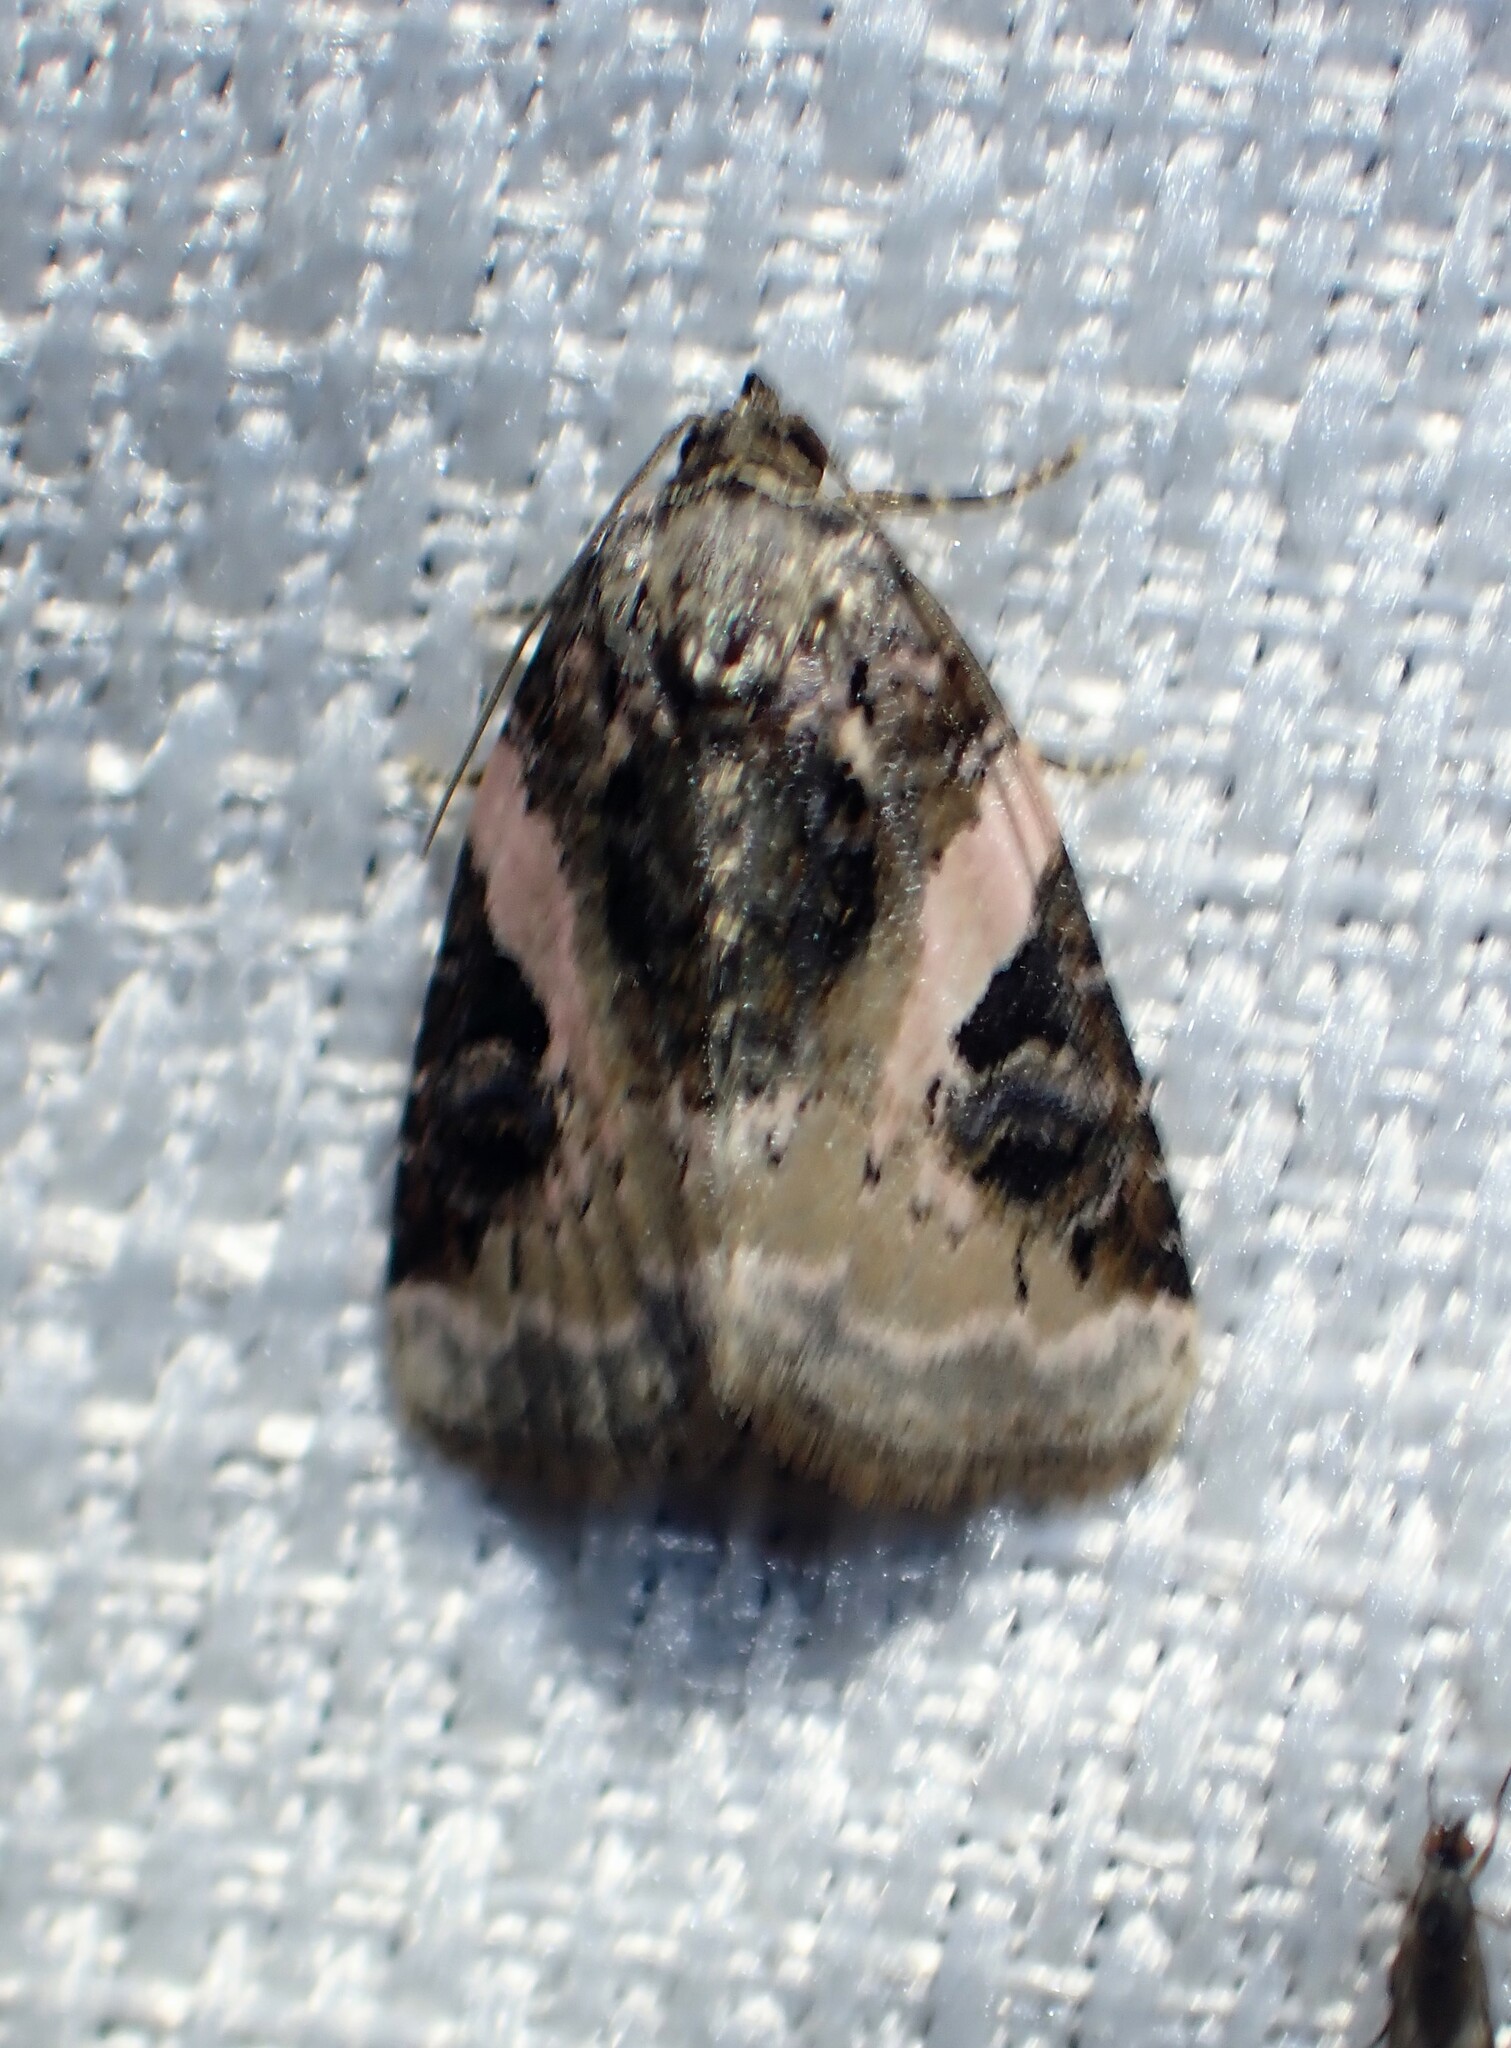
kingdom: Animalia
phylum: Arthropoda
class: Insecta
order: Lepidoptera
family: Noctuidae
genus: Pseudeustrotia
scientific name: Pseudeustrotia carneola
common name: Pink-barred lithacodia moth
